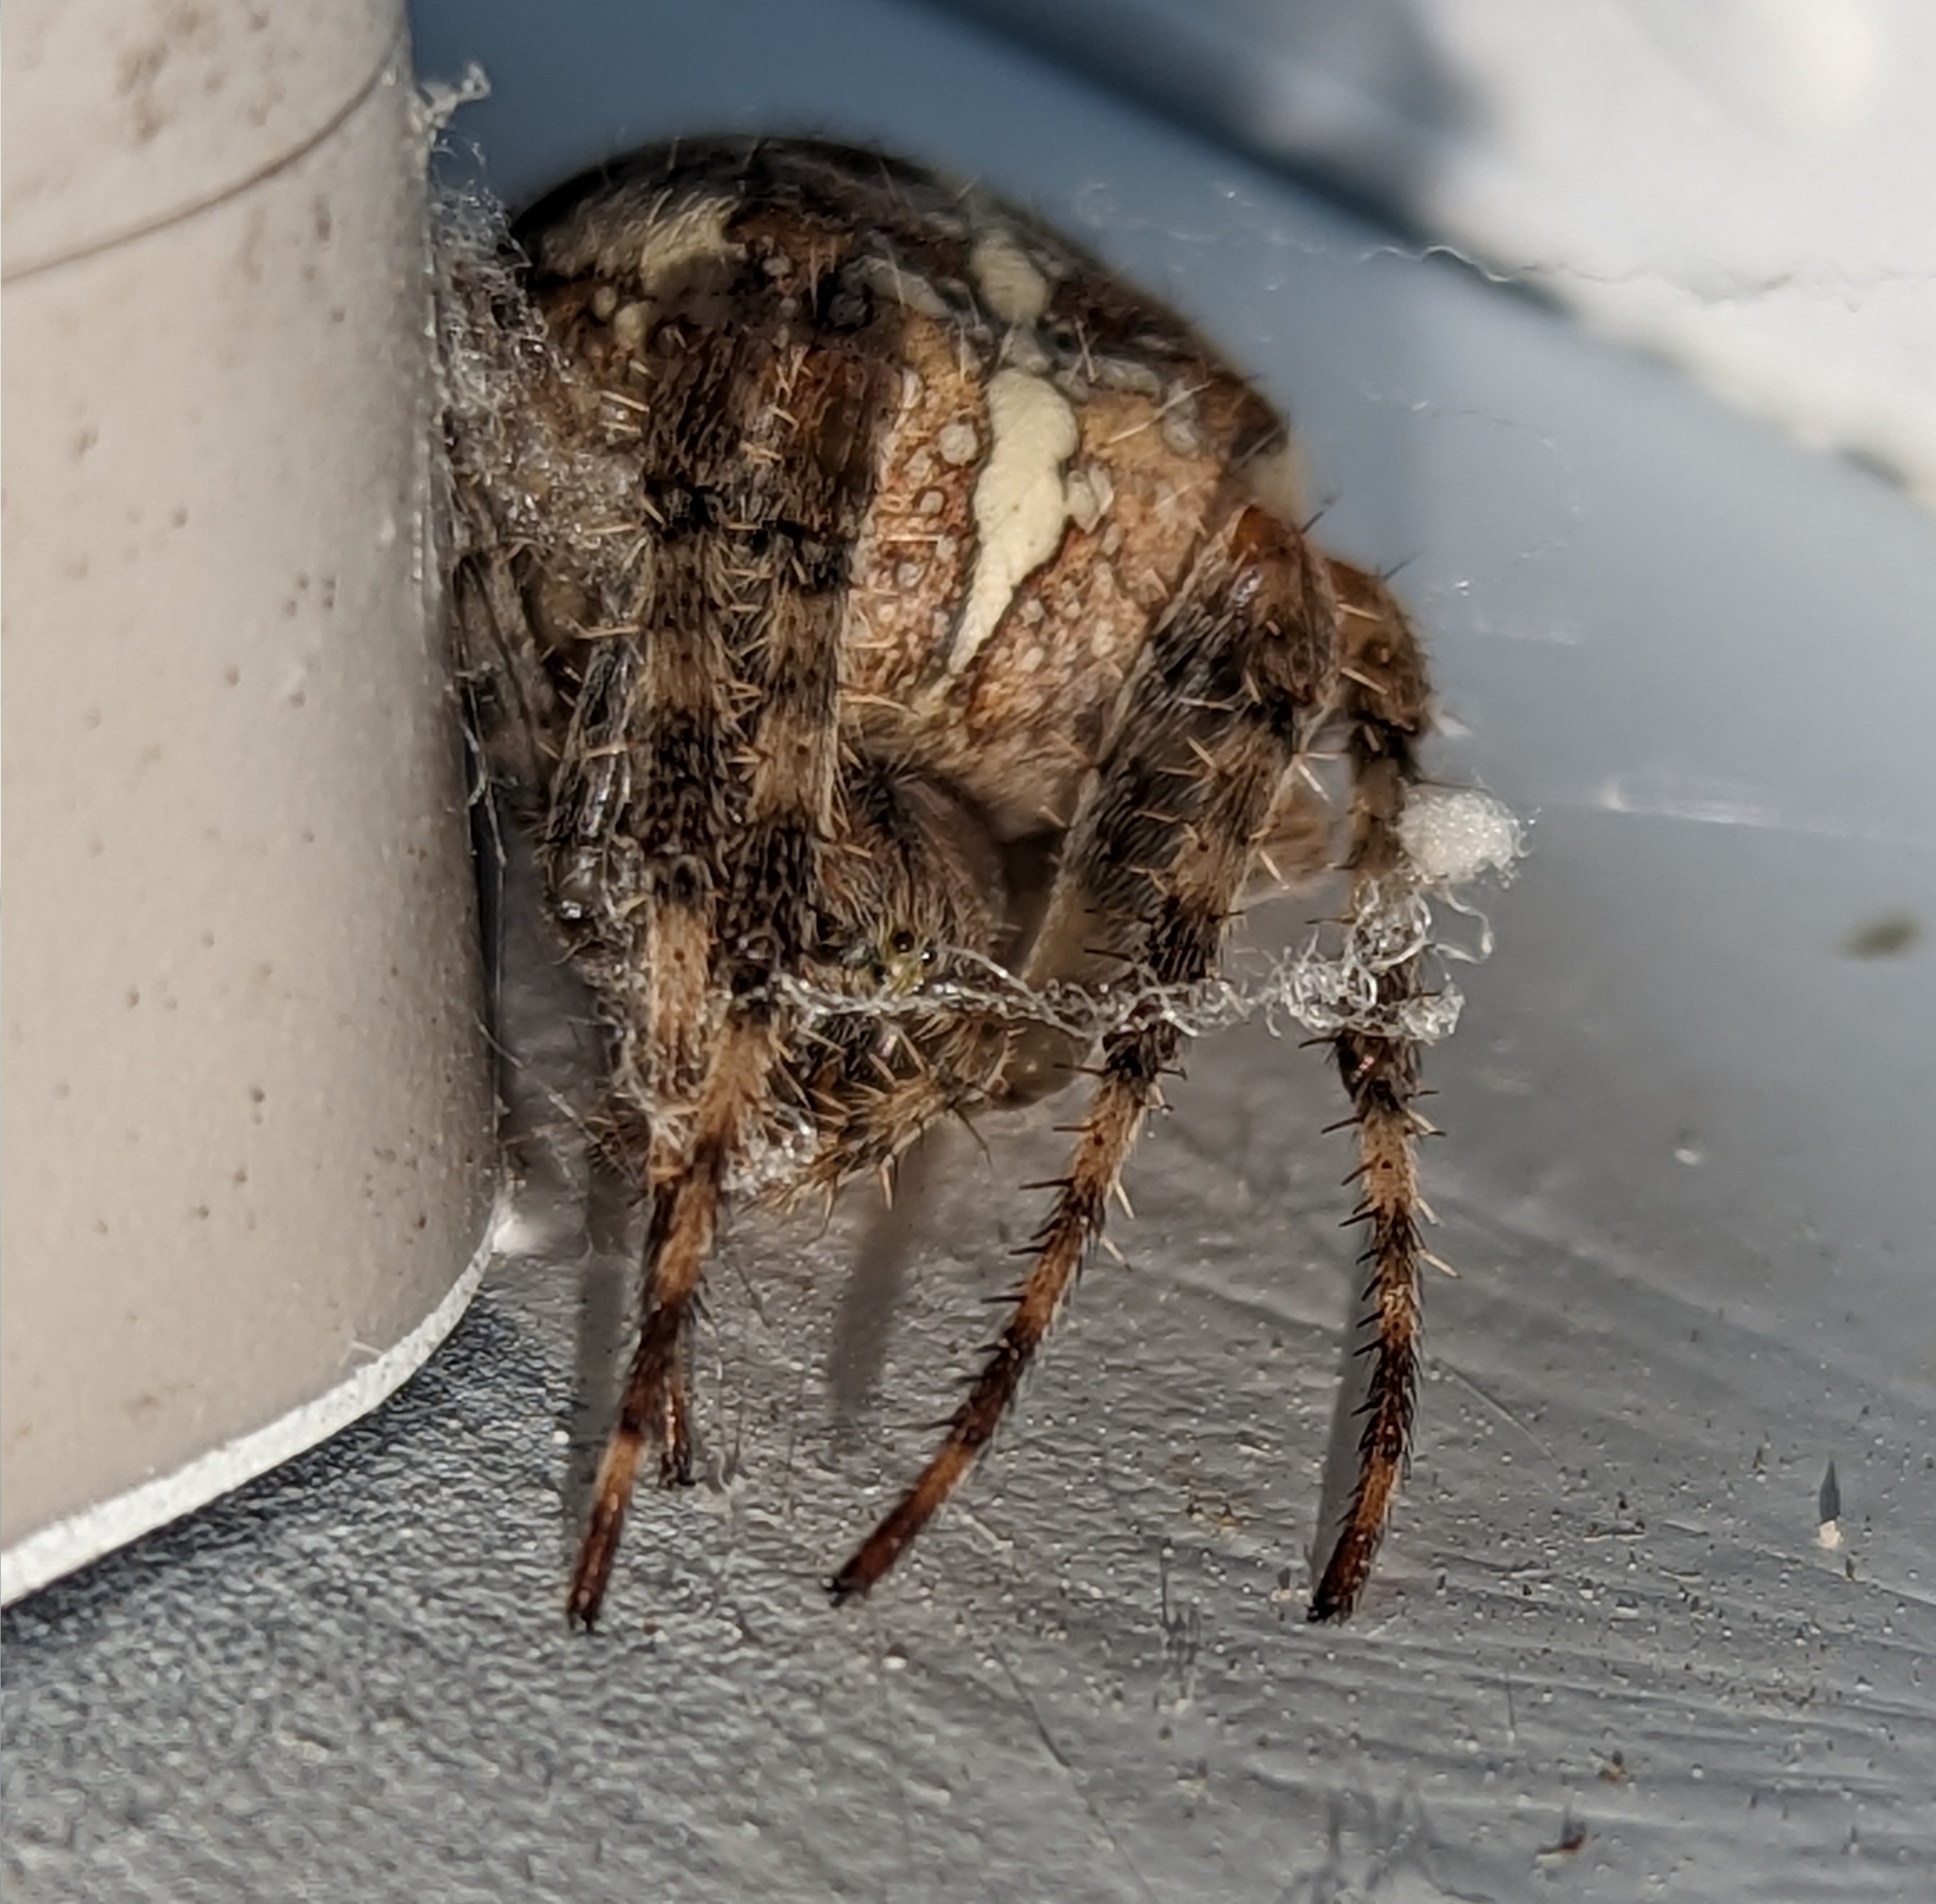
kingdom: Animalia
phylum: Arthropoda
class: Arachnida
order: Araneae
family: Araneidae
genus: Araneus
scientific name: Araneus diadematus
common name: Cross orbweaver
